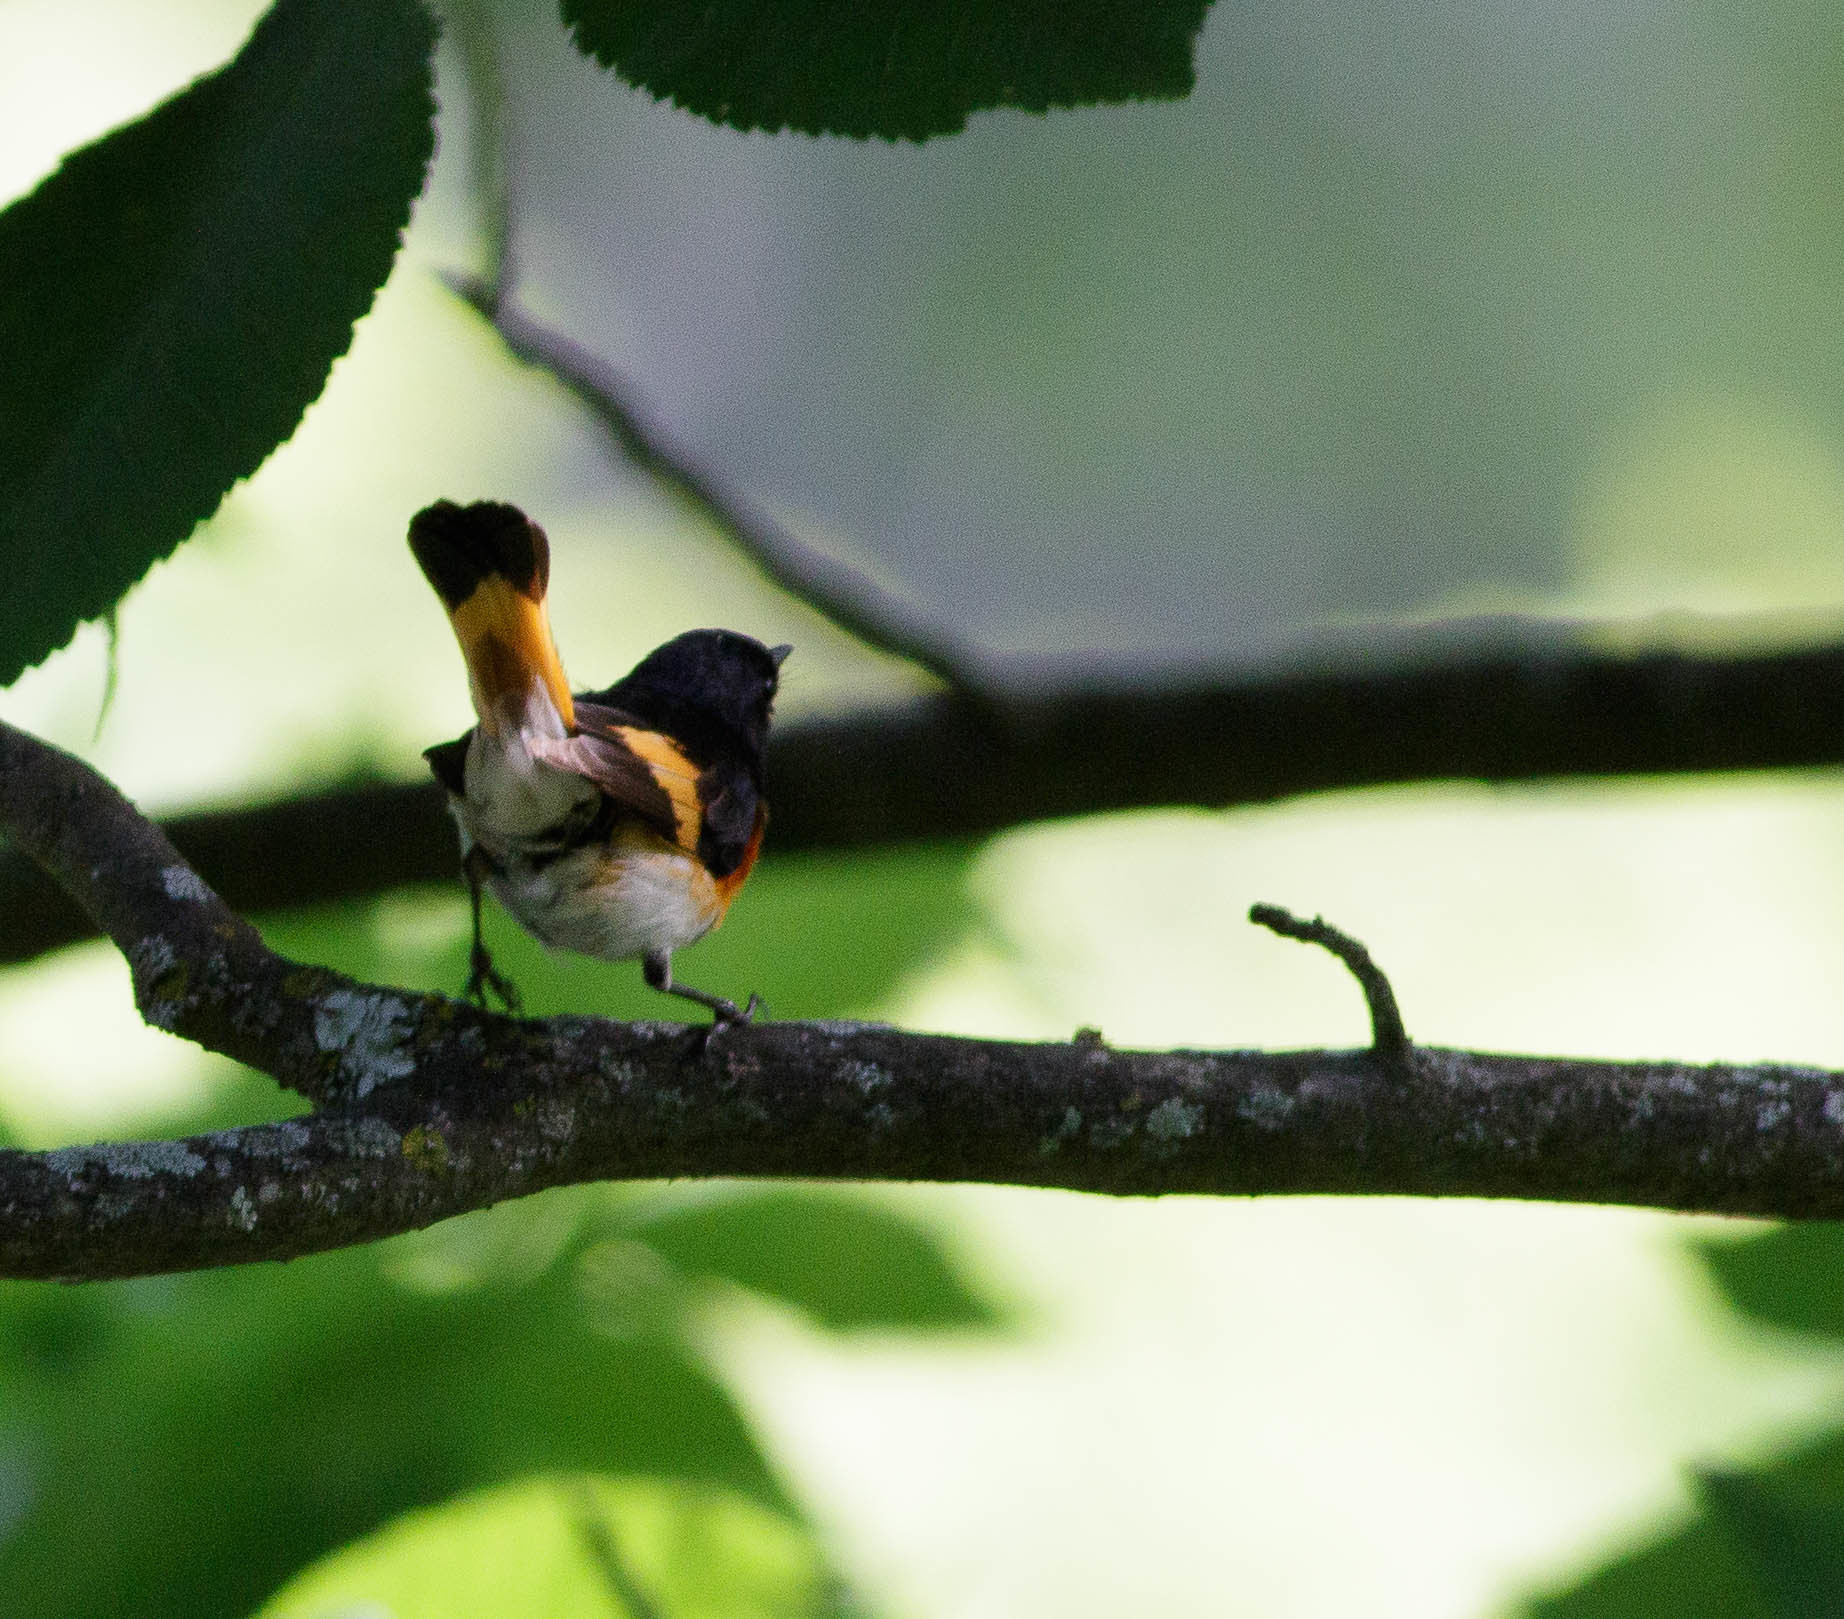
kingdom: Animalia
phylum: Chordata
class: Aves
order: Passeriformes
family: Parulidae
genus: Setophaga
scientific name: Setophaga ruticilla
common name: American redstart
